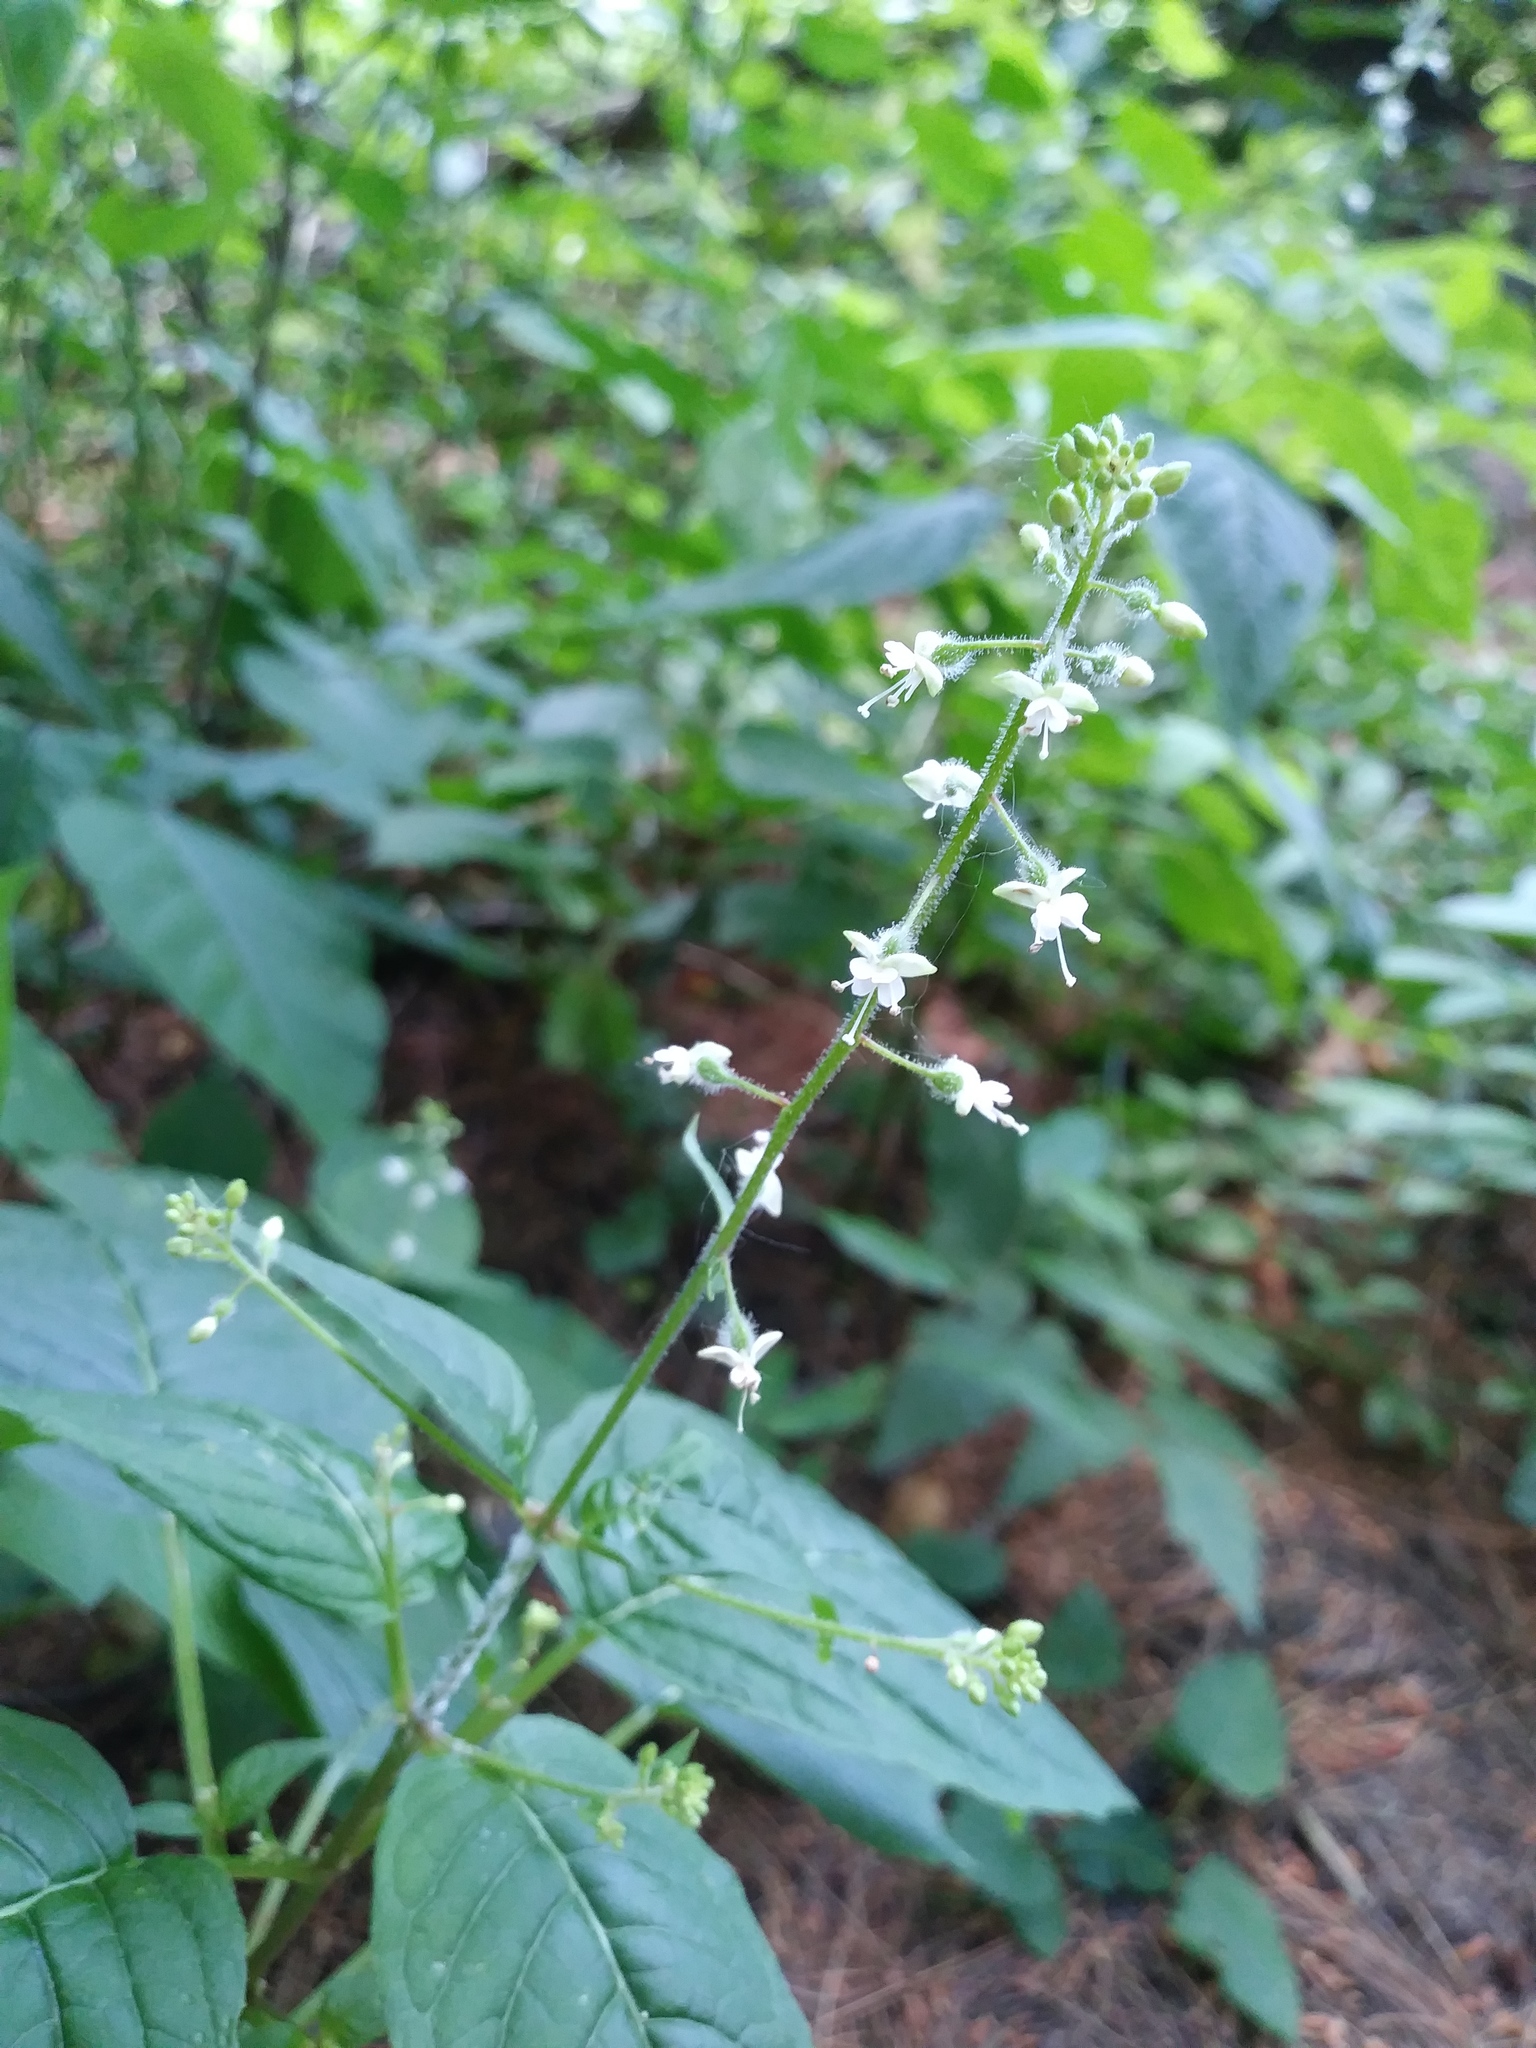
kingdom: Plantae
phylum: Tracheophyta
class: Magnoliopsida
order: Myrtales
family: Onagraceae
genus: Circaea
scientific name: Circaea canadensis
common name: Broad-leaved enchanter's nightshade
